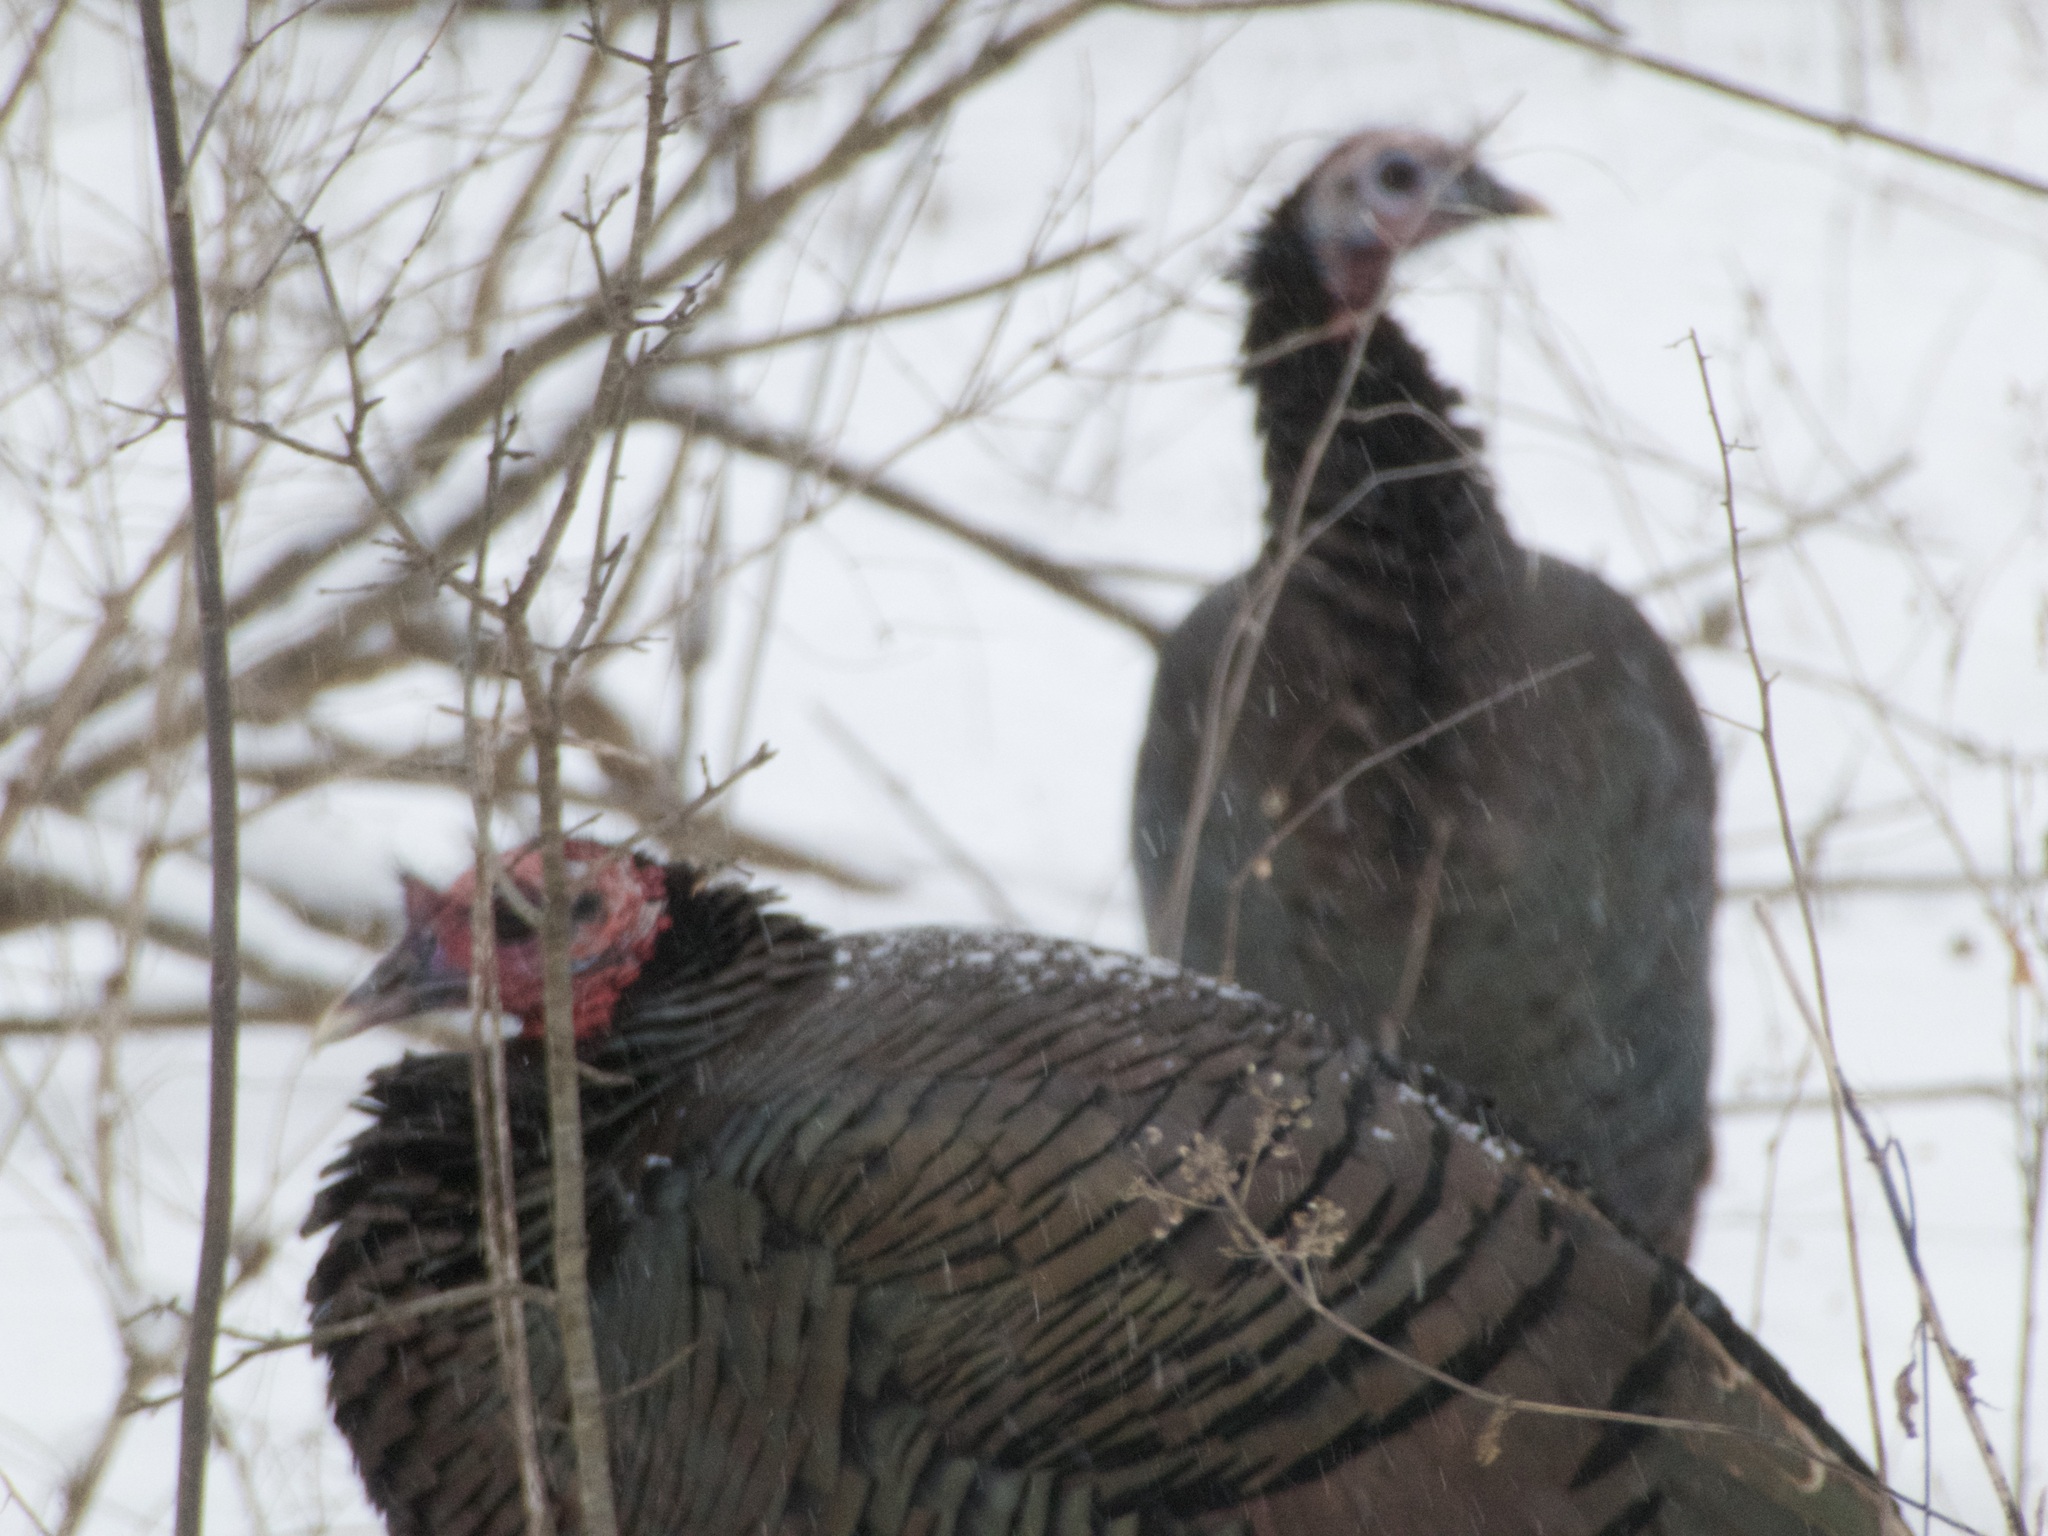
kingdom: Animalia
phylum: Chordata
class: Aves
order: Galliformes
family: Phasianidae
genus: Meleagris
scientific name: Meleagris gallopavo
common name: Wild turkey
